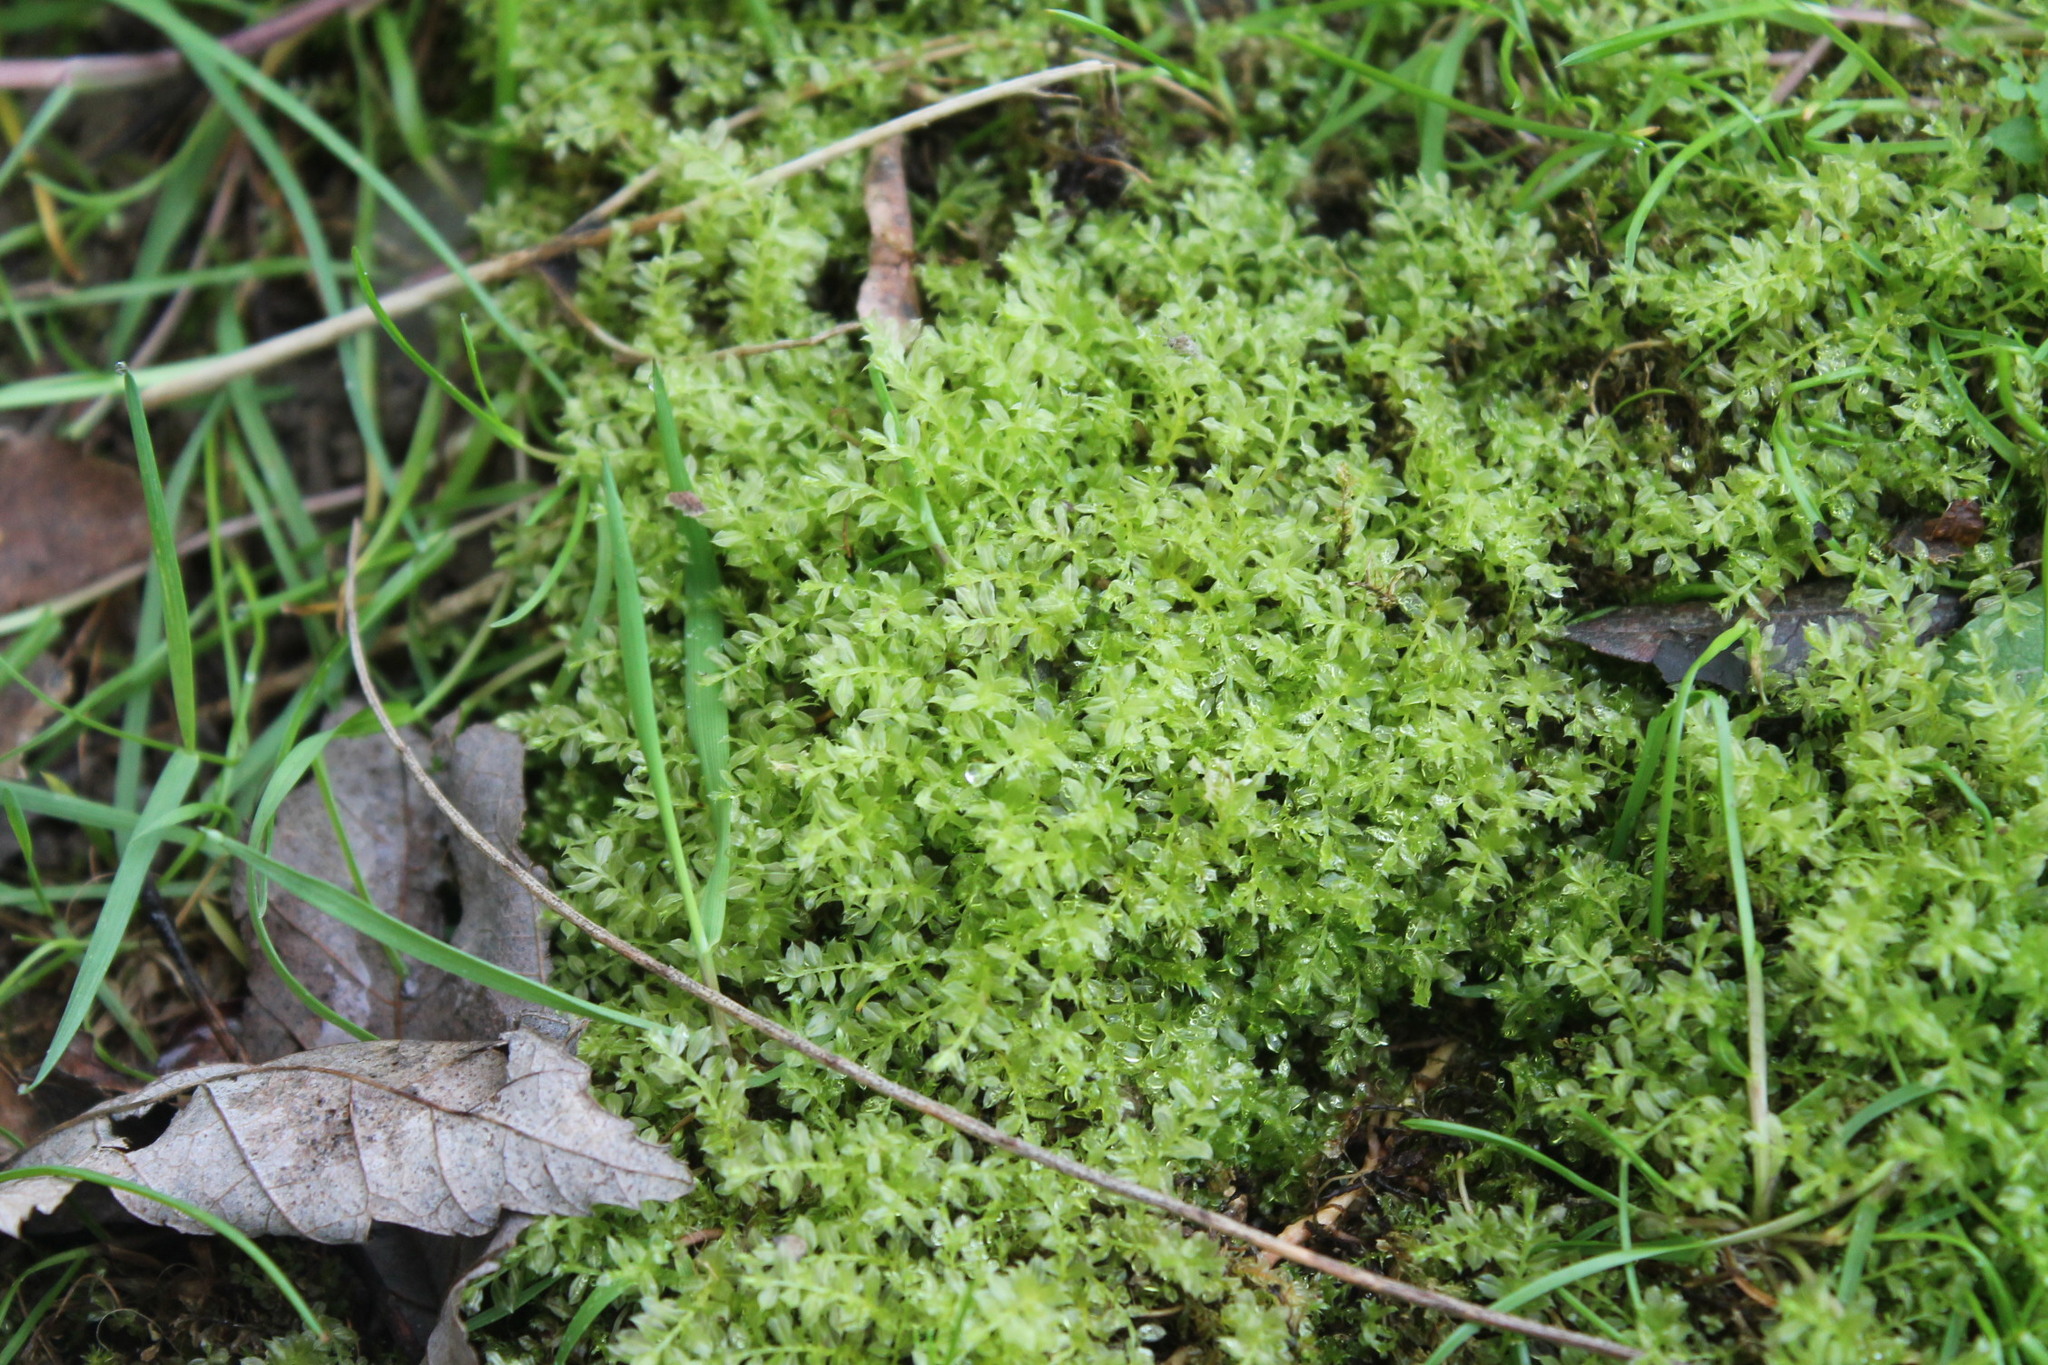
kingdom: Plantae
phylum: Bryophyta
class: Bryopsida
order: Bryales
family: Mniaceae
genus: Plagiomnium
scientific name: Plagiomnium cuspidatum
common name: Woodsy leafy moss
